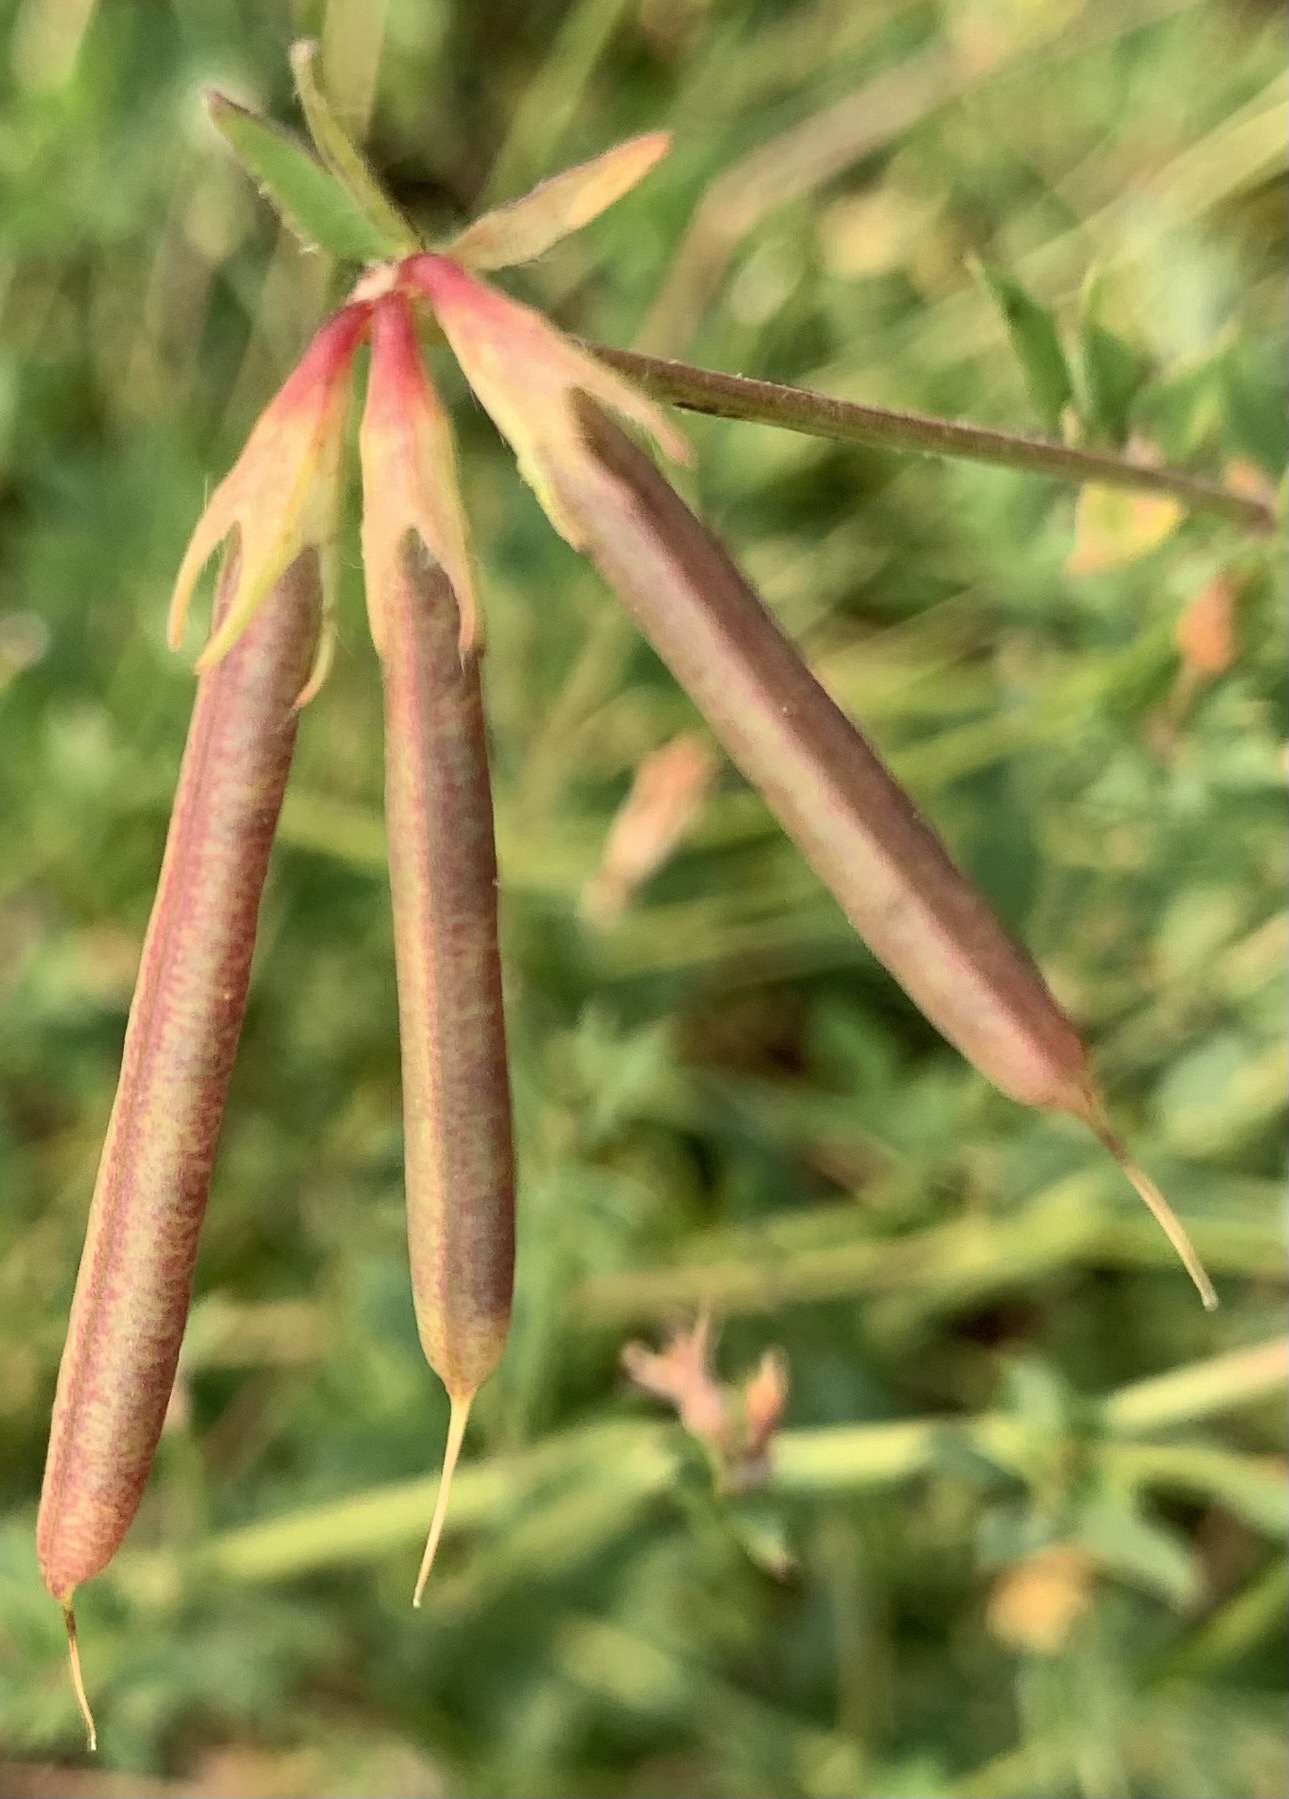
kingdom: Plantae
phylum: Tracheophyta
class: Magnoliopsida
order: Fabales
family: Fabaceae
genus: Lotus
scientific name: Lotus corniculatus
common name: Common bird's-foot-trefoil
